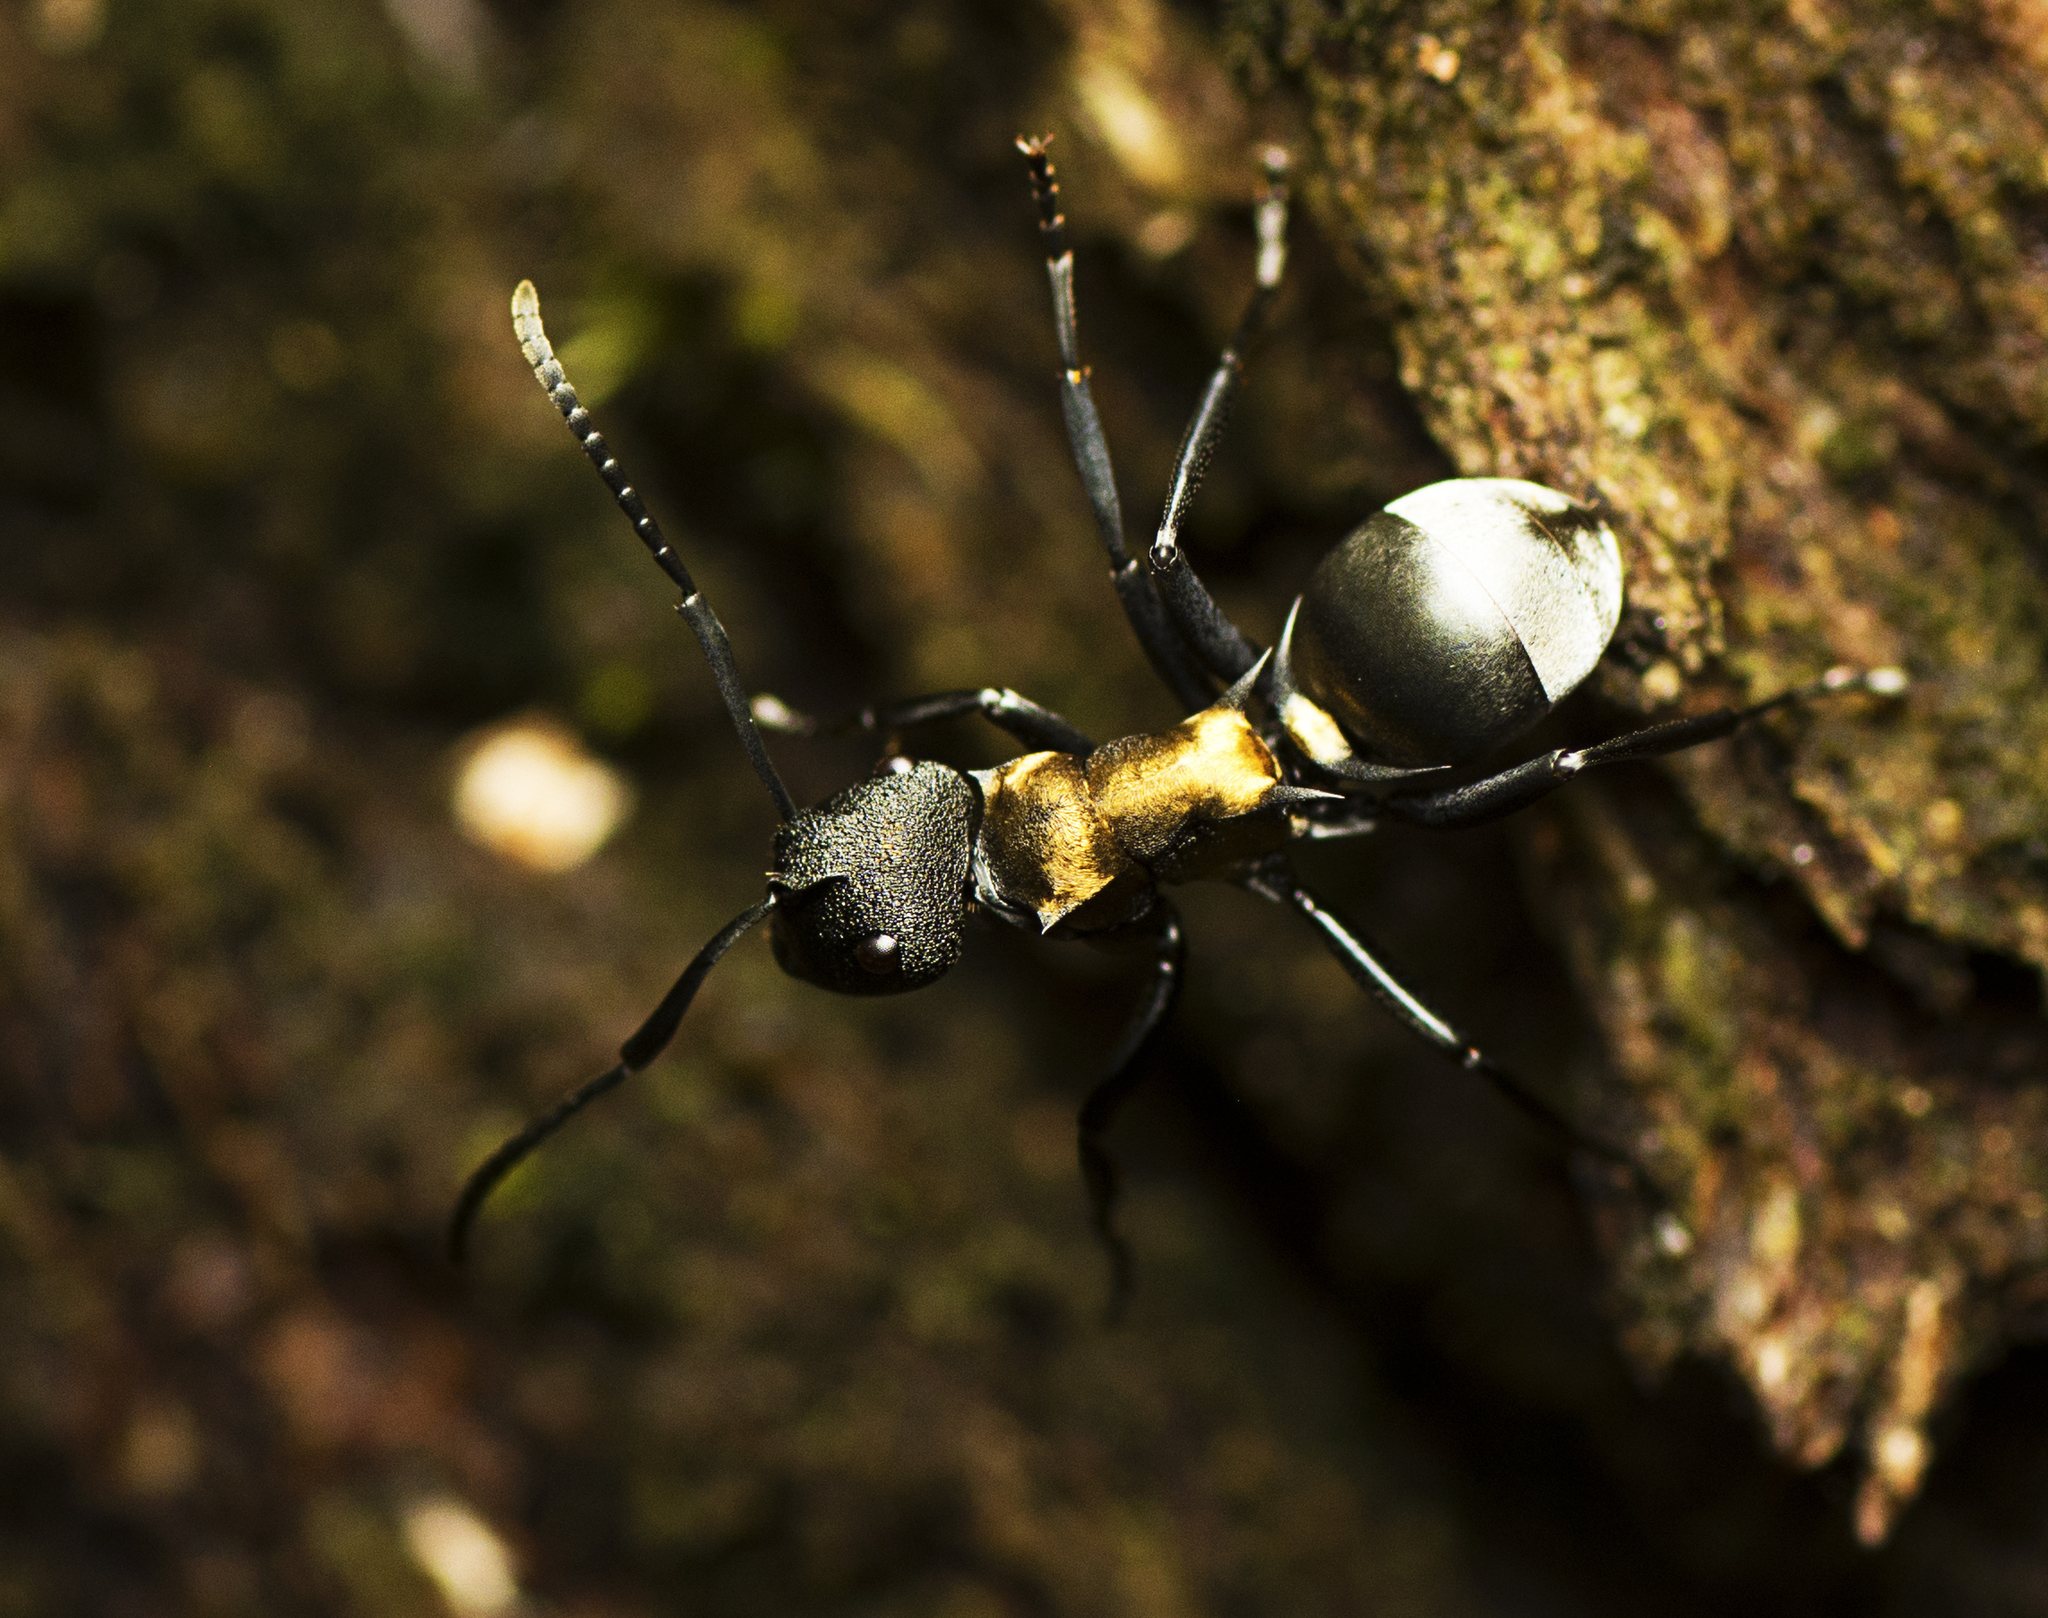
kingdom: Animalia
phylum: Arthropoda
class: Insecta
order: Hymenoptera
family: Formicidae
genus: Polyrhachis
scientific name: Polyrhachis ornata
